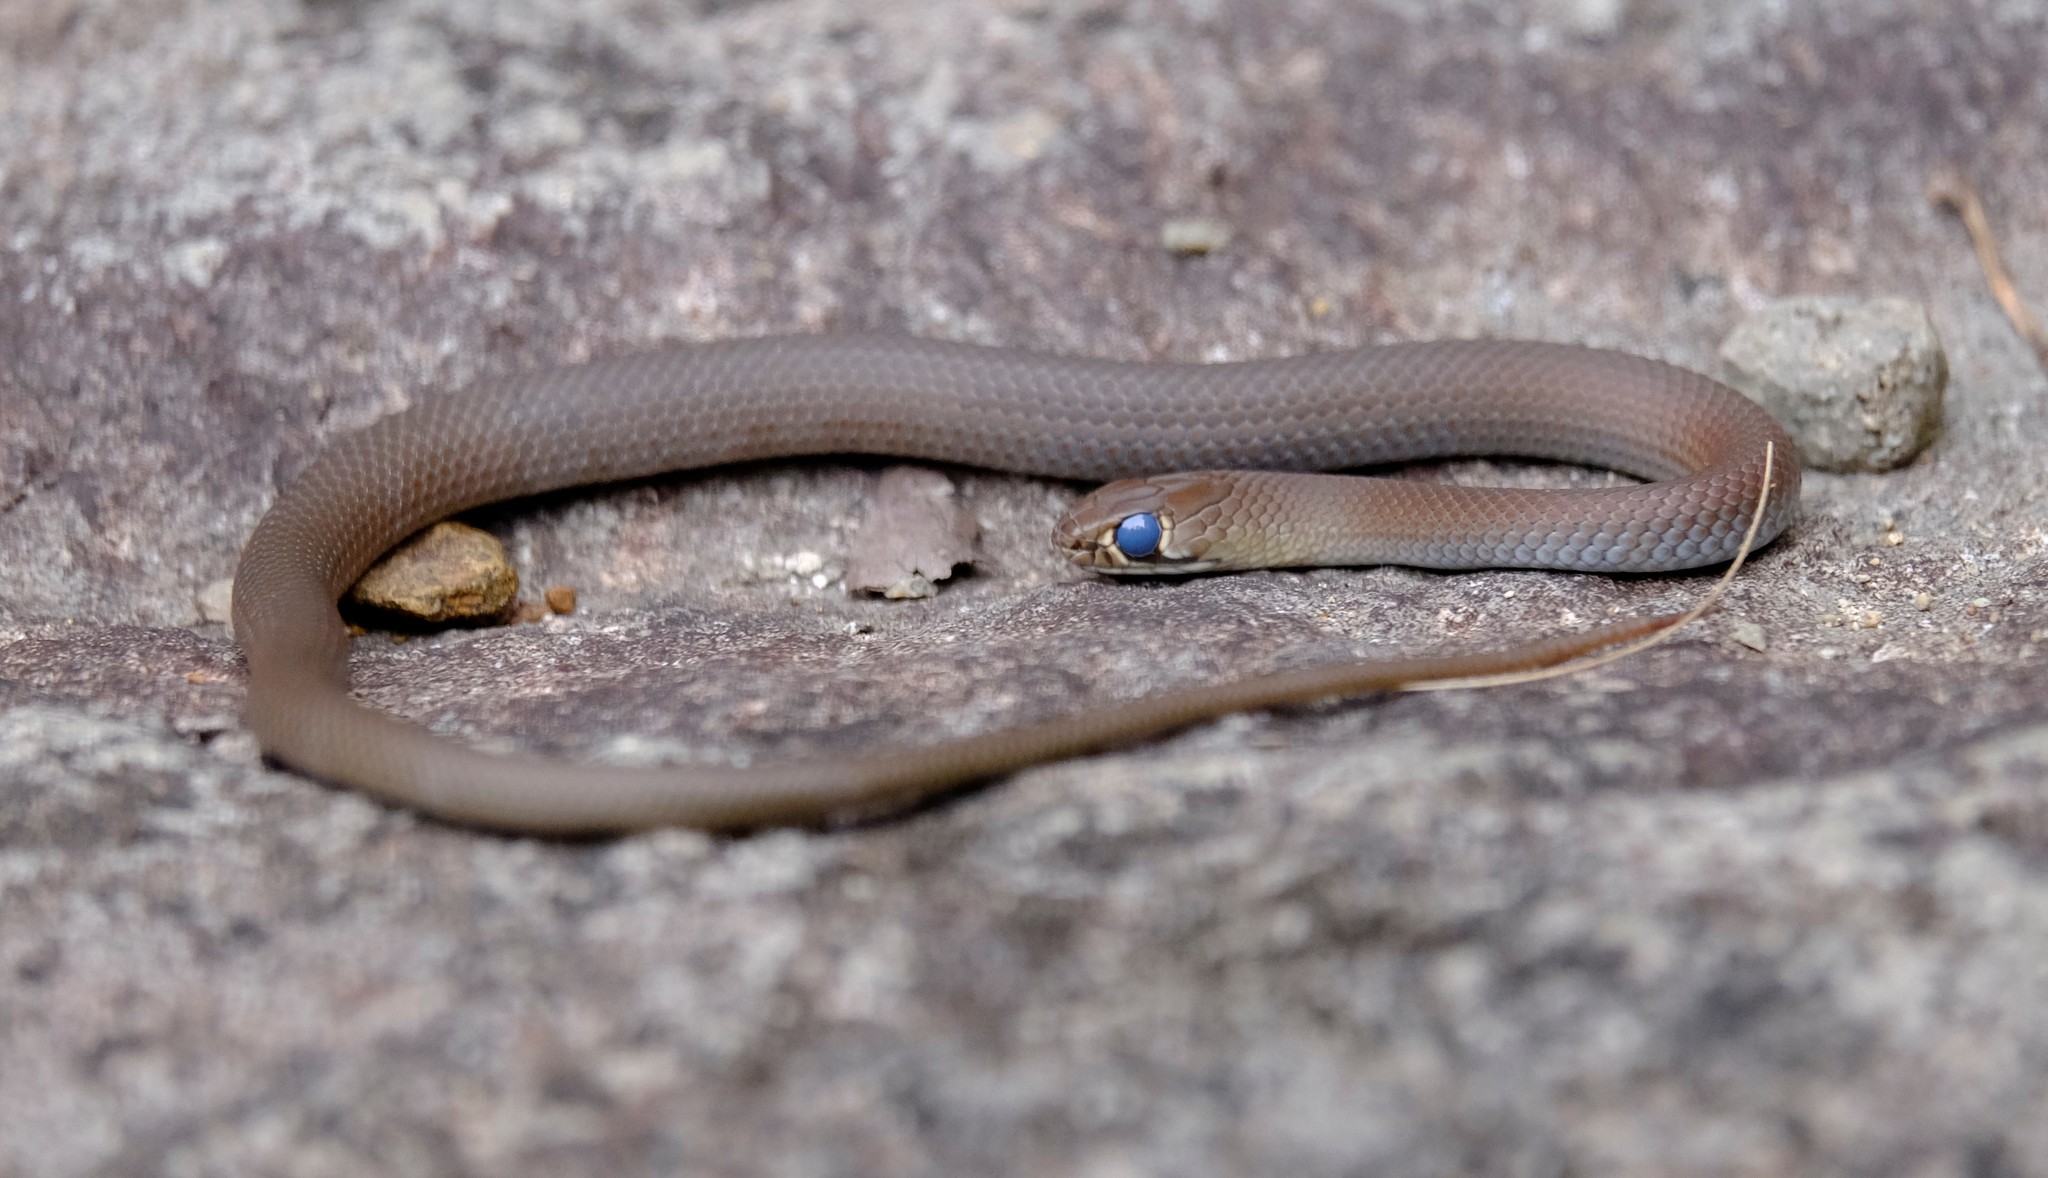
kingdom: Animalia
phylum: Chordata
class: Squamata
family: Elapidae
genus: Demansia
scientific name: Demansia psammophis
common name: Yellow-faced whip snake
